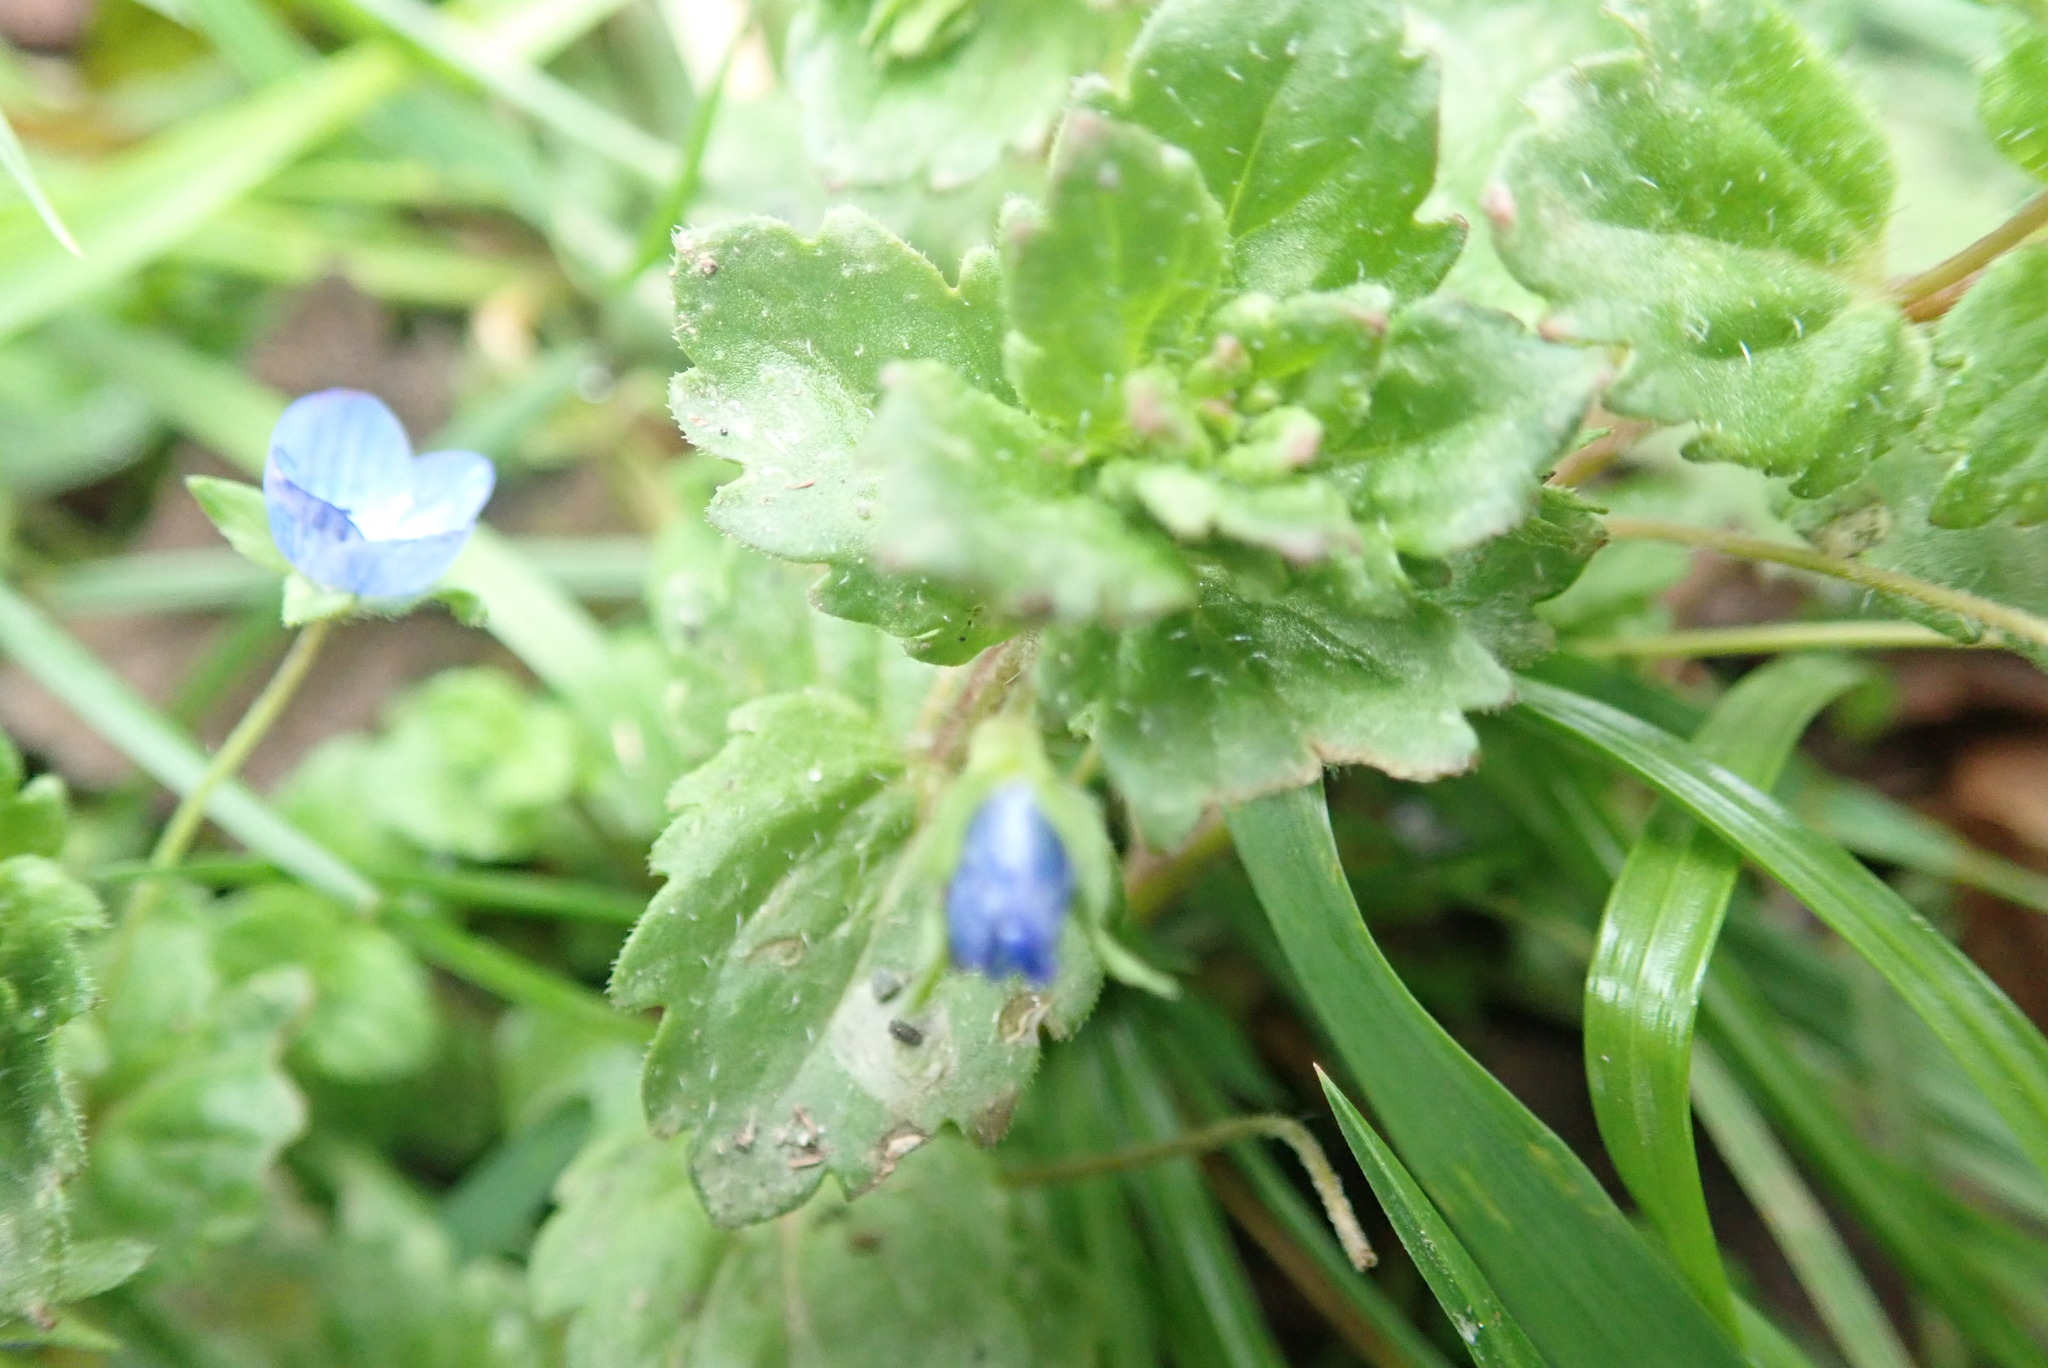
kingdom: Plantae
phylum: Tracheophyta
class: Magnoliopsida
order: Lamiales
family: Plantaginaceae
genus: Veronica
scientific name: Veronica persica
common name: Common field-speedwell
